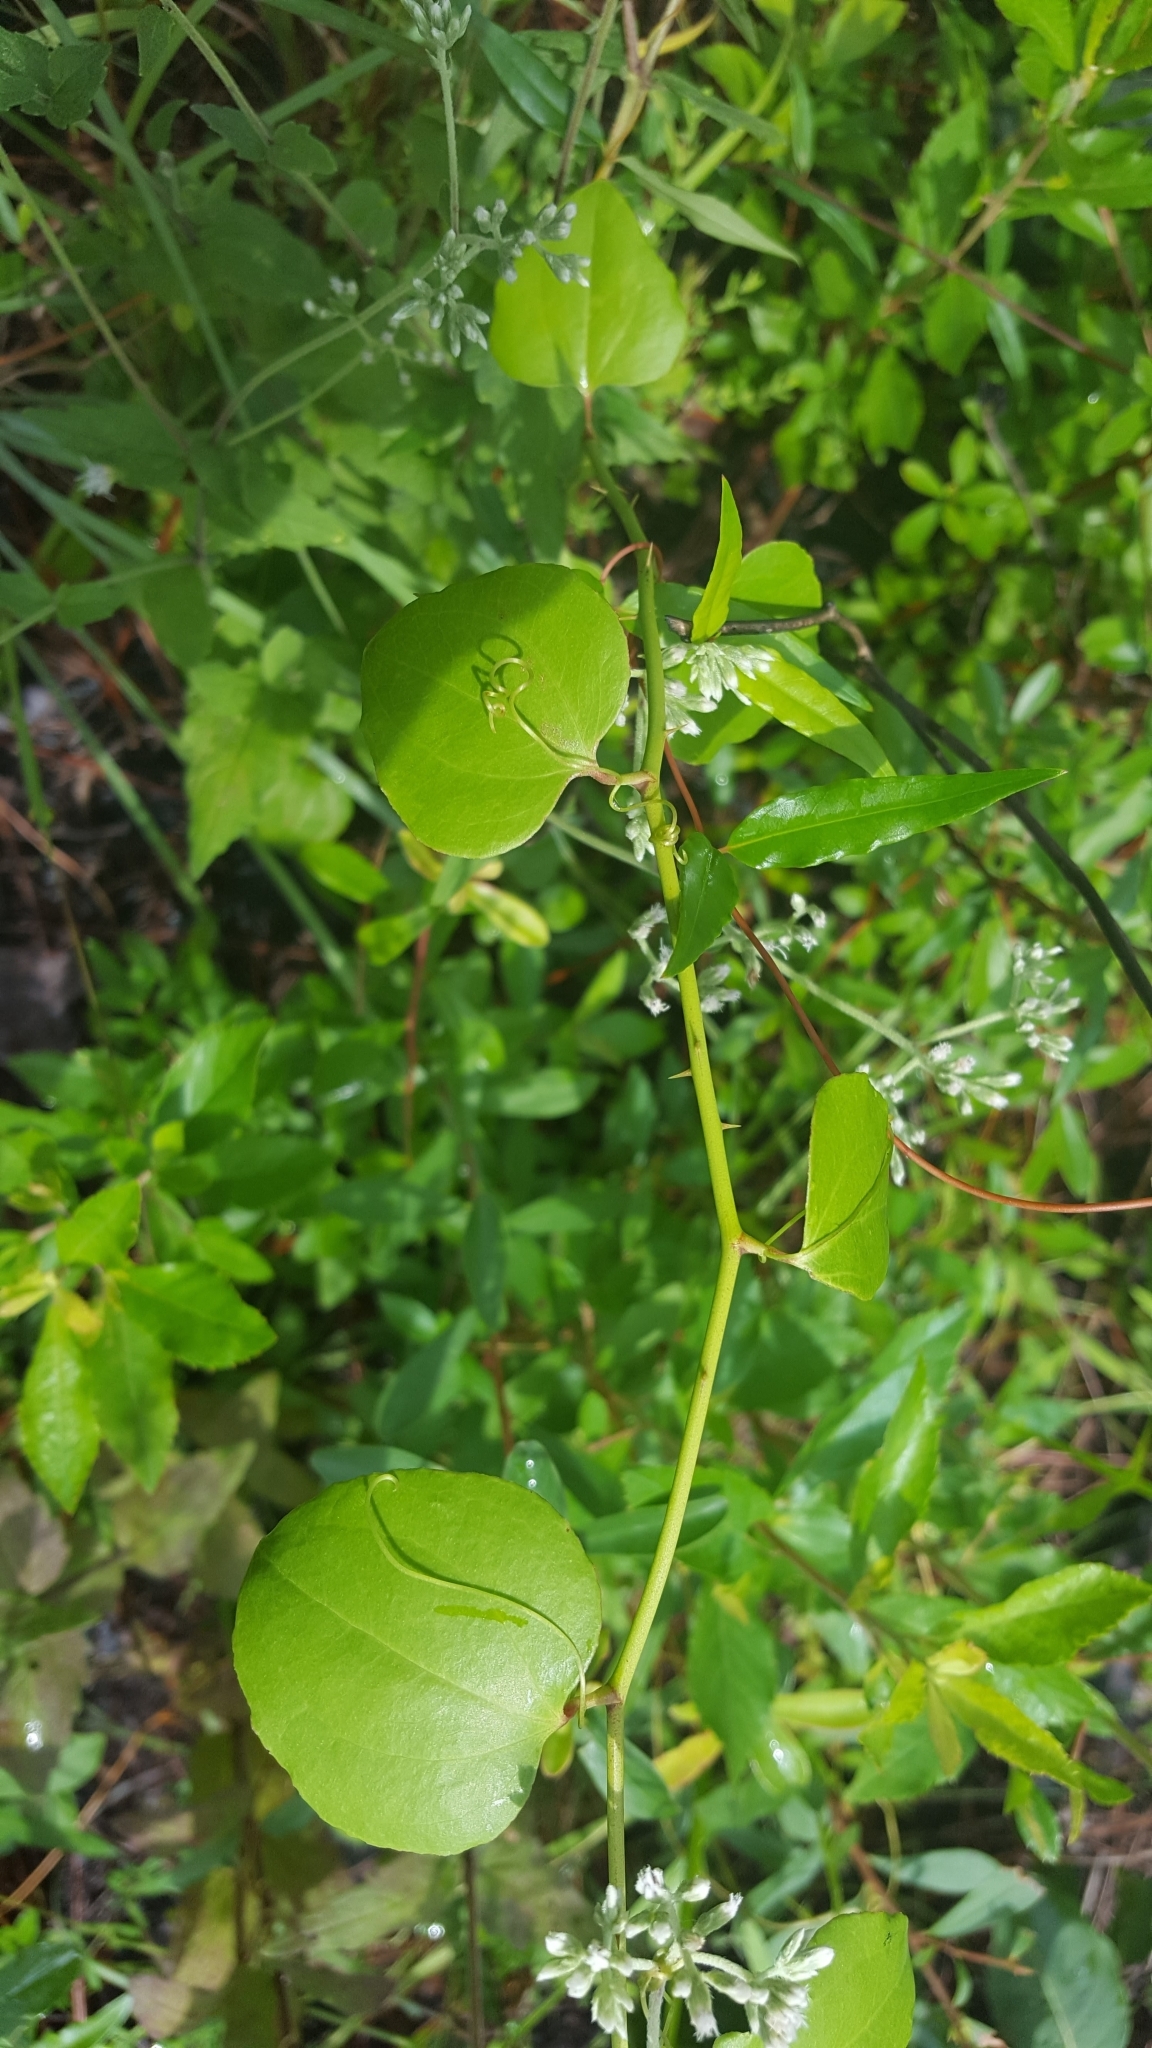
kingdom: Plantae
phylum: Tracheophyta
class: Liliopsida
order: Liliales
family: Smilacaceae
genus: Smilax
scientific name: Smilax rotundifolia
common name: Bullbriar
